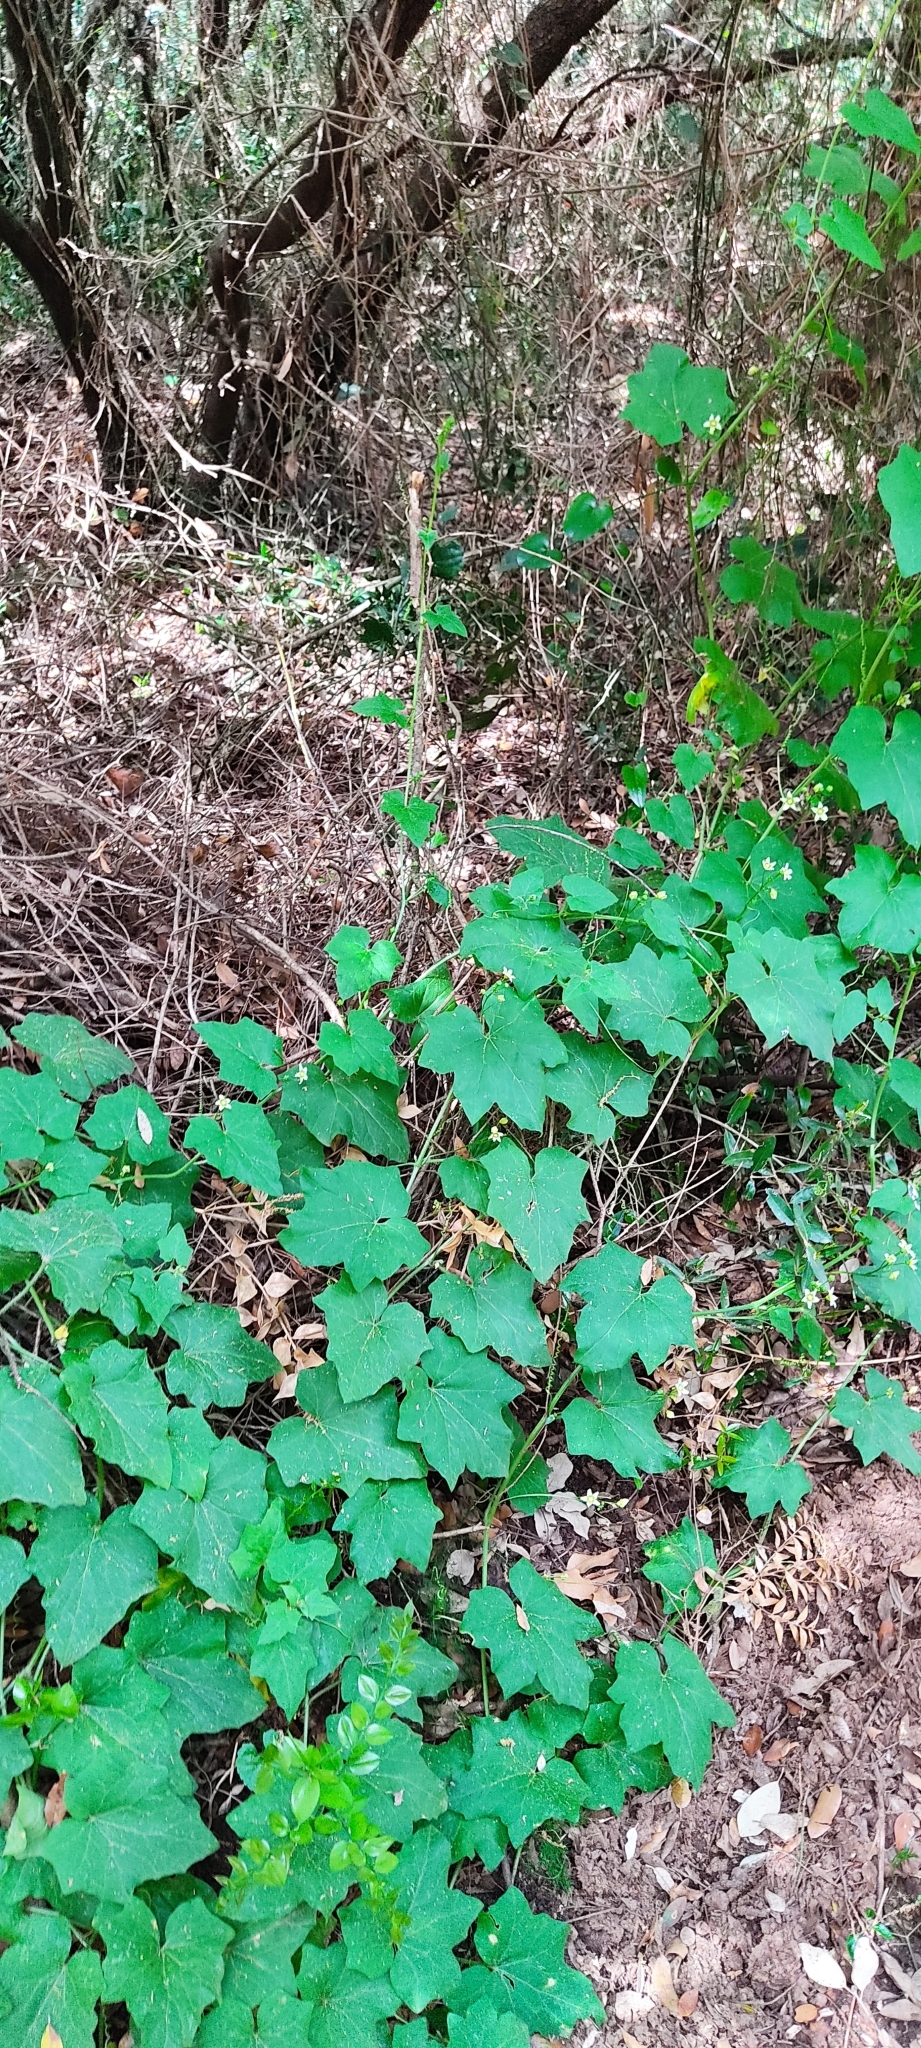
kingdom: Plantae
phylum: Tracheophyta
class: Magnoliopsida
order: Cucurbitales
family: Cucurbitaceae
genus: Bryonia
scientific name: Bryonia cretica
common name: Cretan bryony
